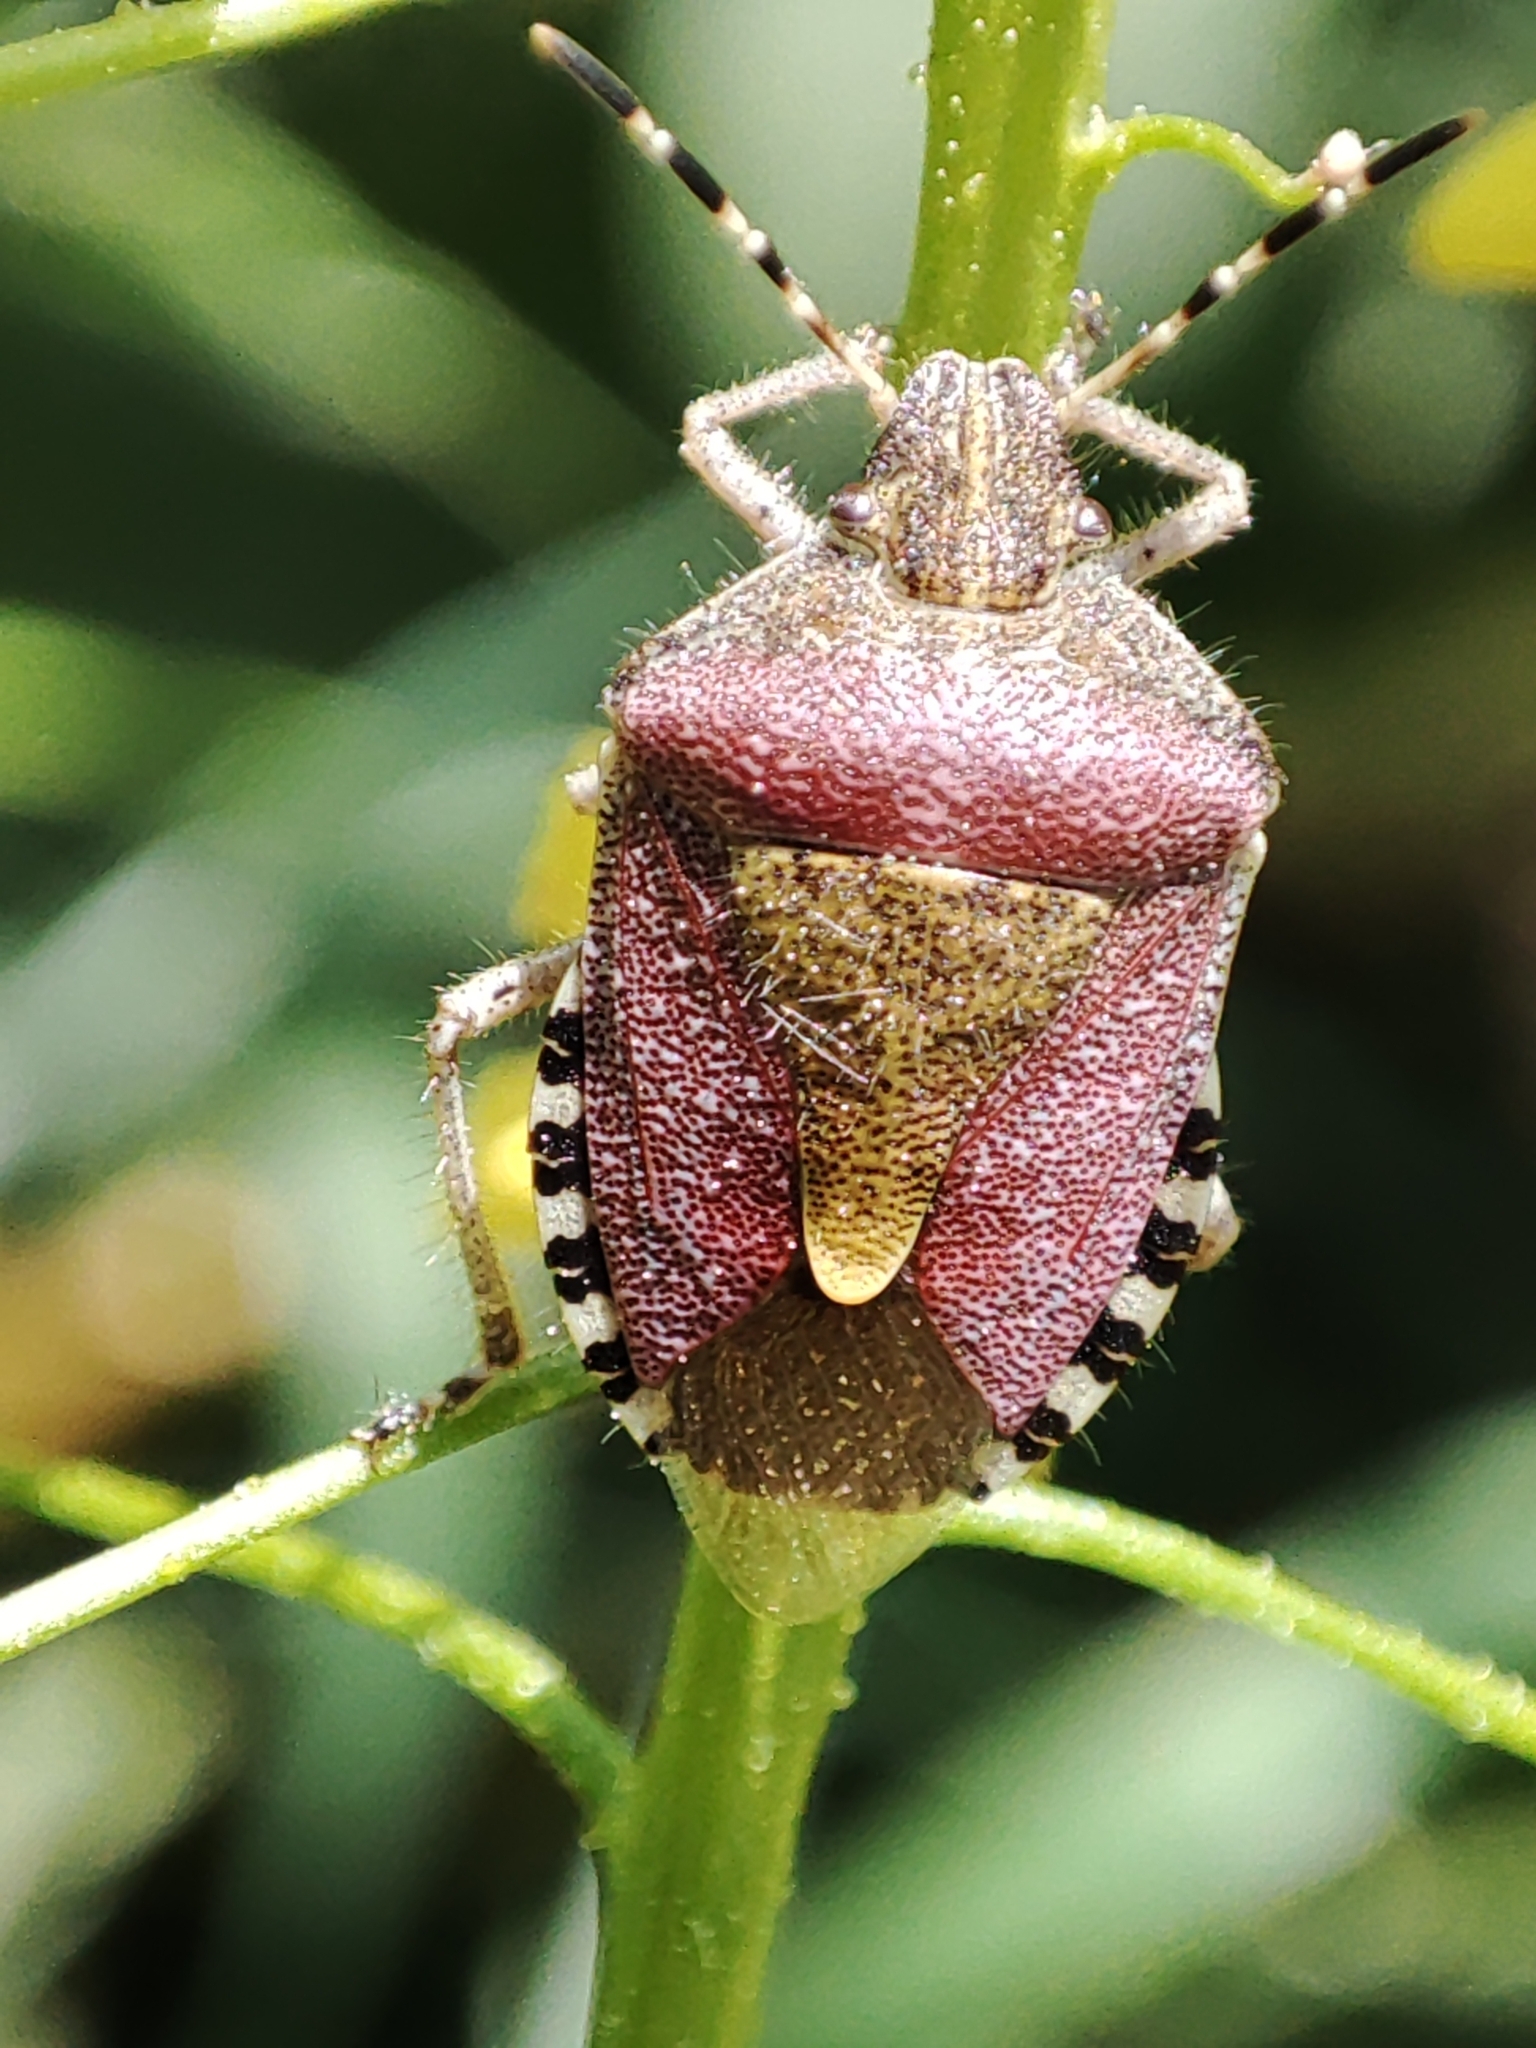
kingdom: Animalia
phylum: Arthropoda
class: Insecta
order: Hemiptera
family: Pentatomidae
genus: Dolycoris
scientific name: Dolycoris baccarum
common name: Sloe bug
